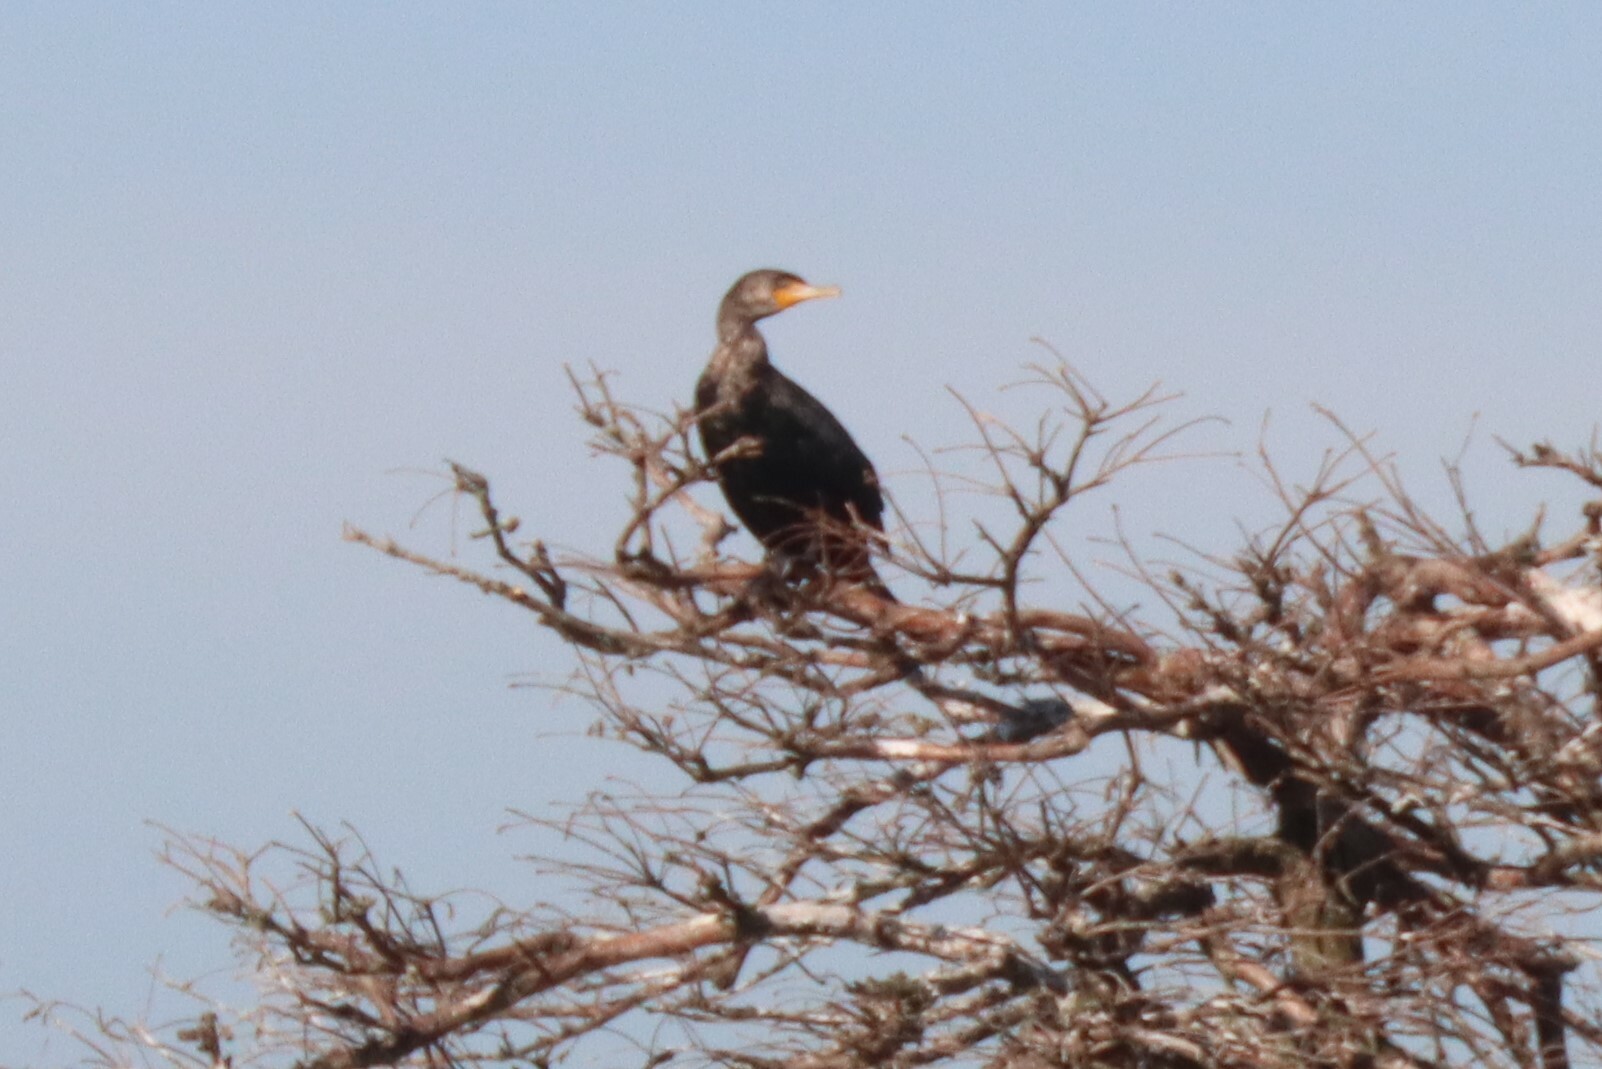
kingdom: Animalia
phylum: Chordata
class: Aves
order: Suliformes
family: Phalacrocoracidae
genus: Phalacrocorax
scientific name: Phalacrocorax auritus
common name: Double-crested cormorant
